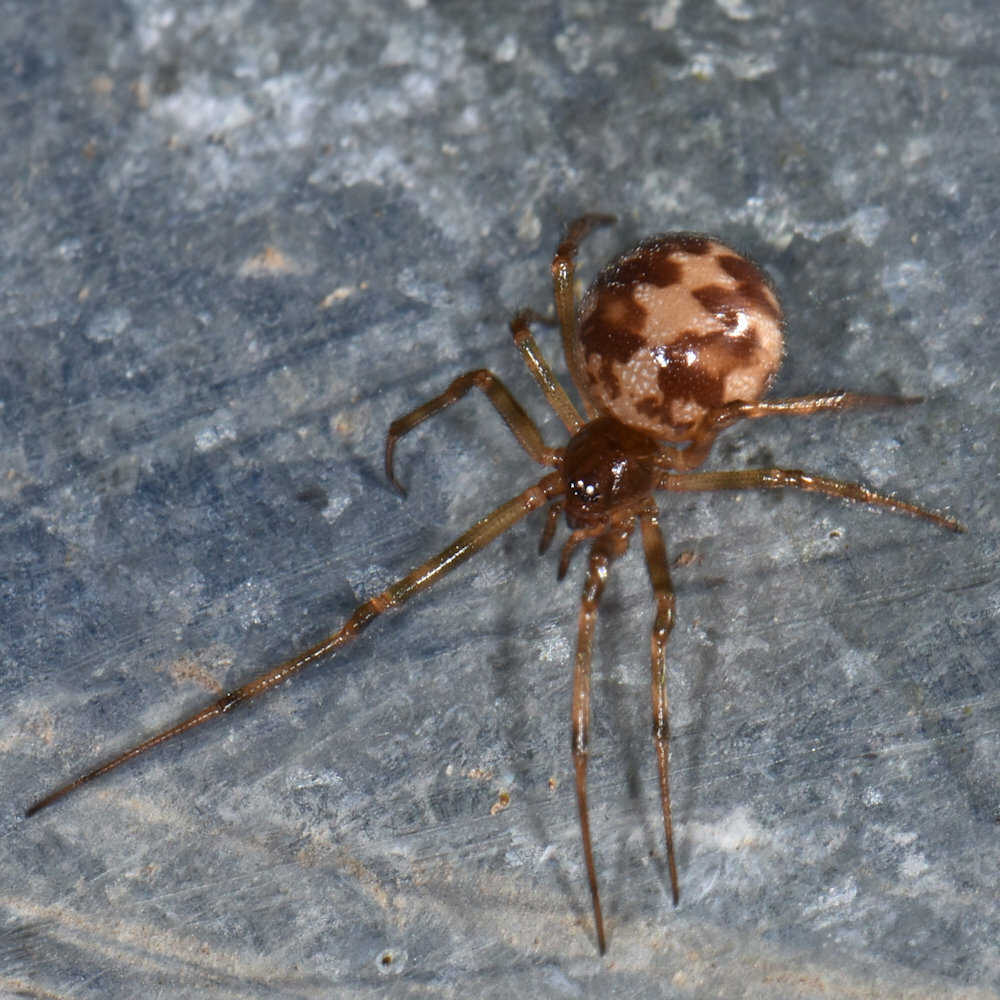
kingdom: Animalia
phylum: Arthropoda
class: Arachnida
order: Araneae
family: Theridiidae
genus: Steatoda
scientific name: Steatoda triangulosa
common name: Triangulate bud spider
